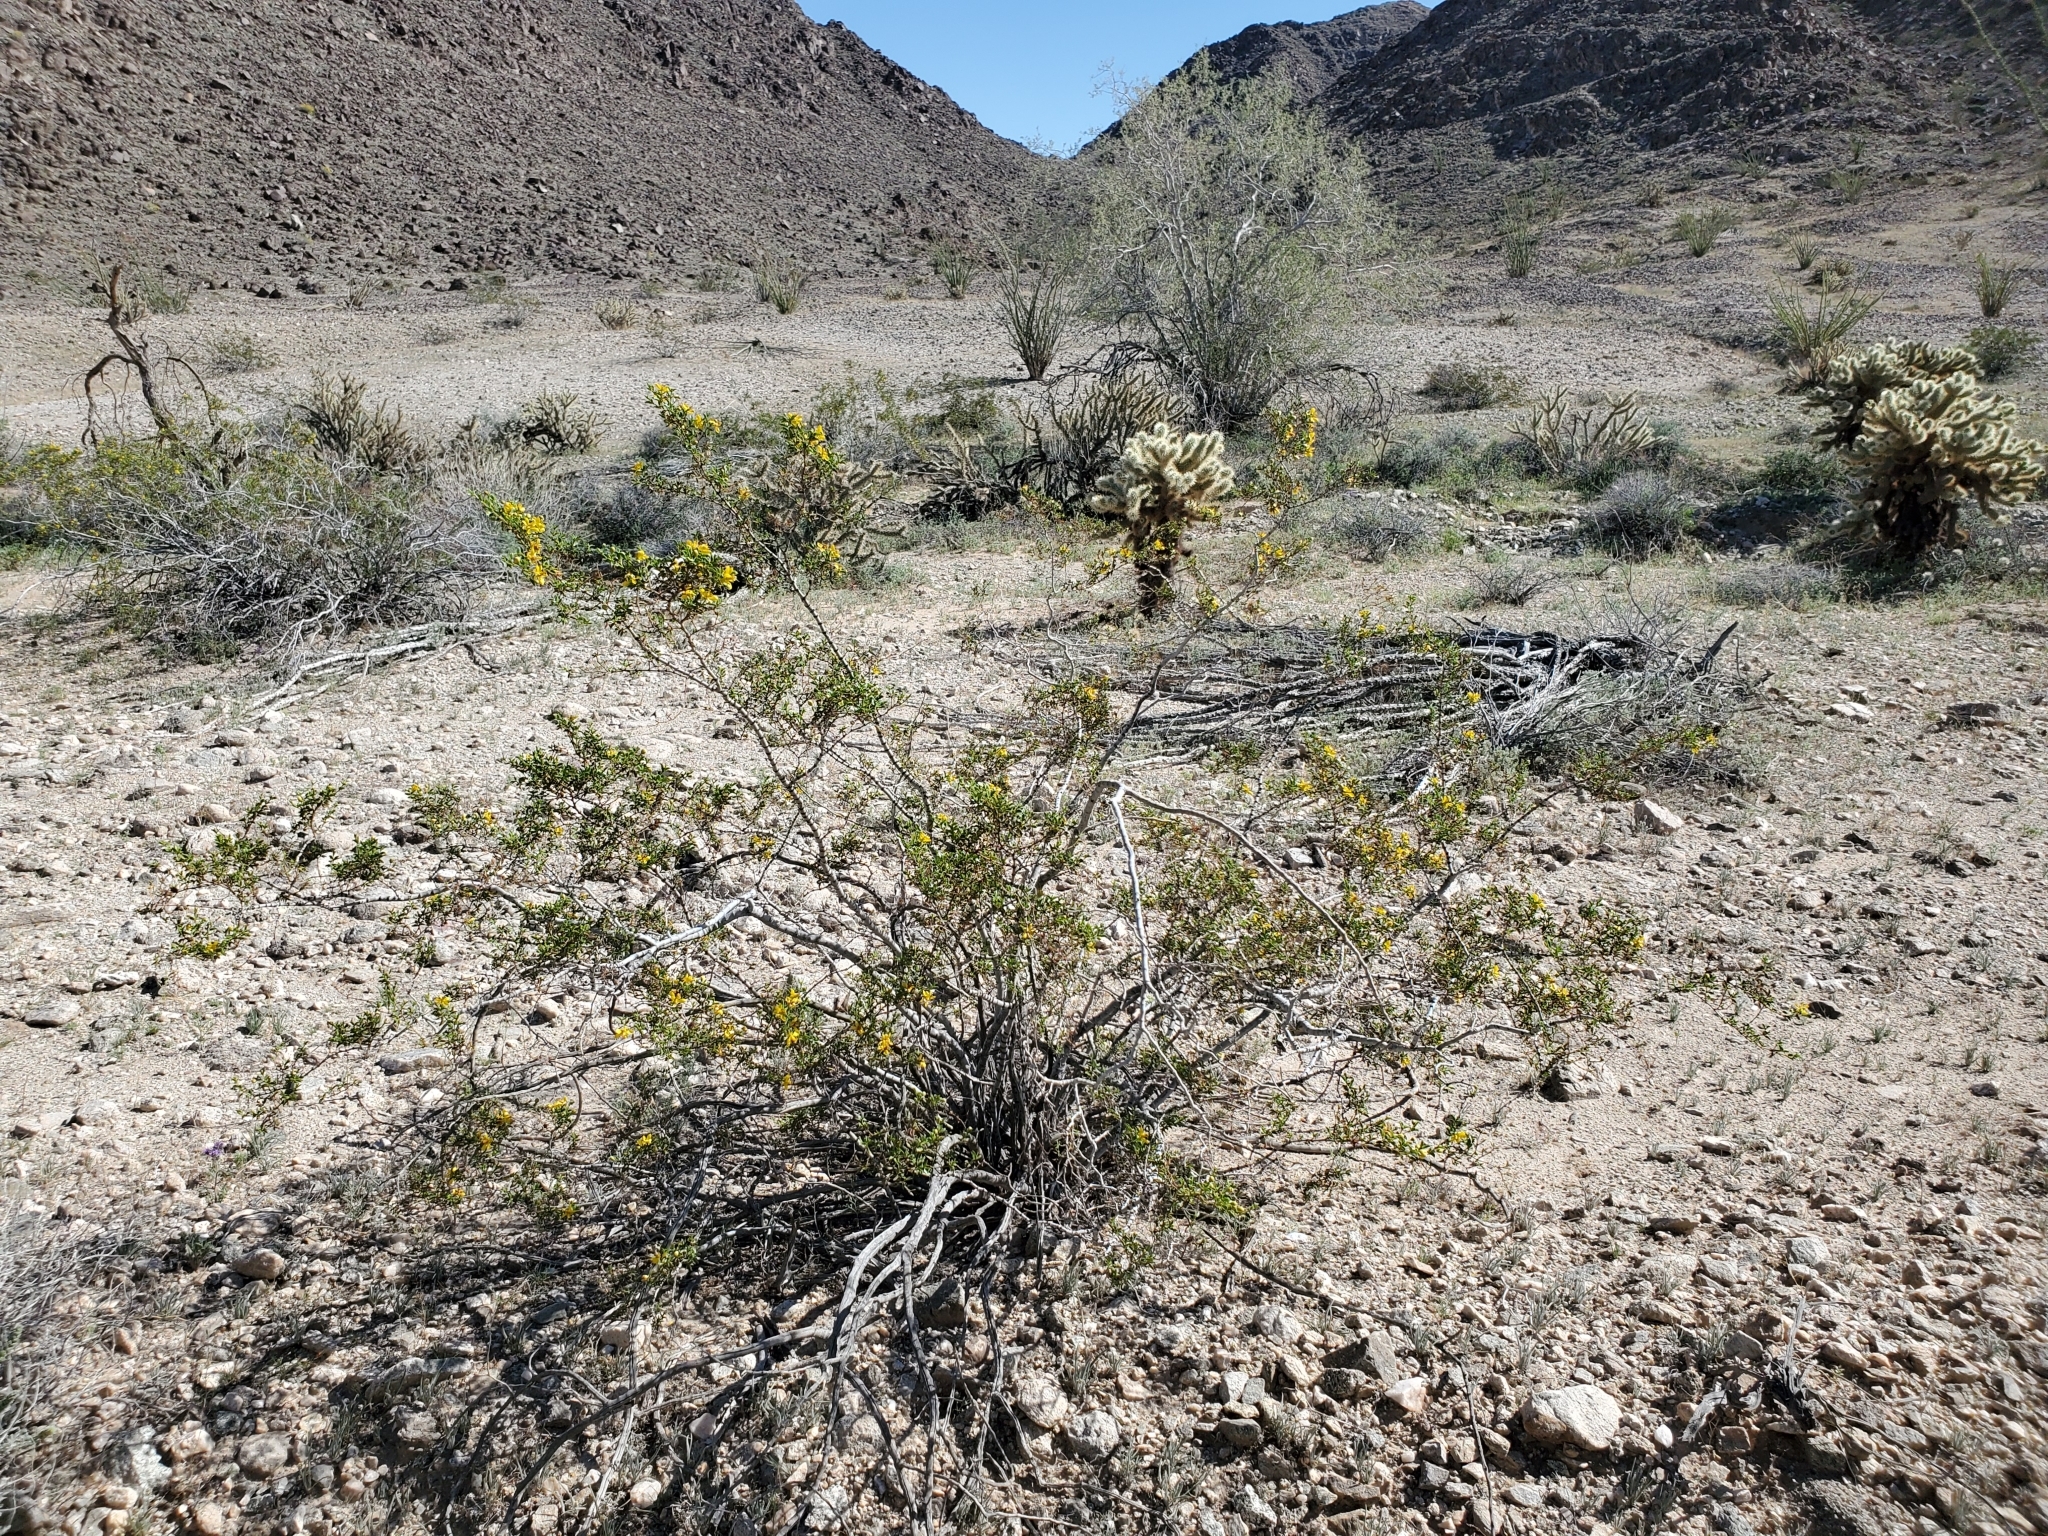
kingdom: Plantae
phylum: Tracheophyta
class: Magnoliopsida
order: Zygophyllales
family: Zygophyllaceae
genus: Larrea
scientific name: Larrea tridentata
